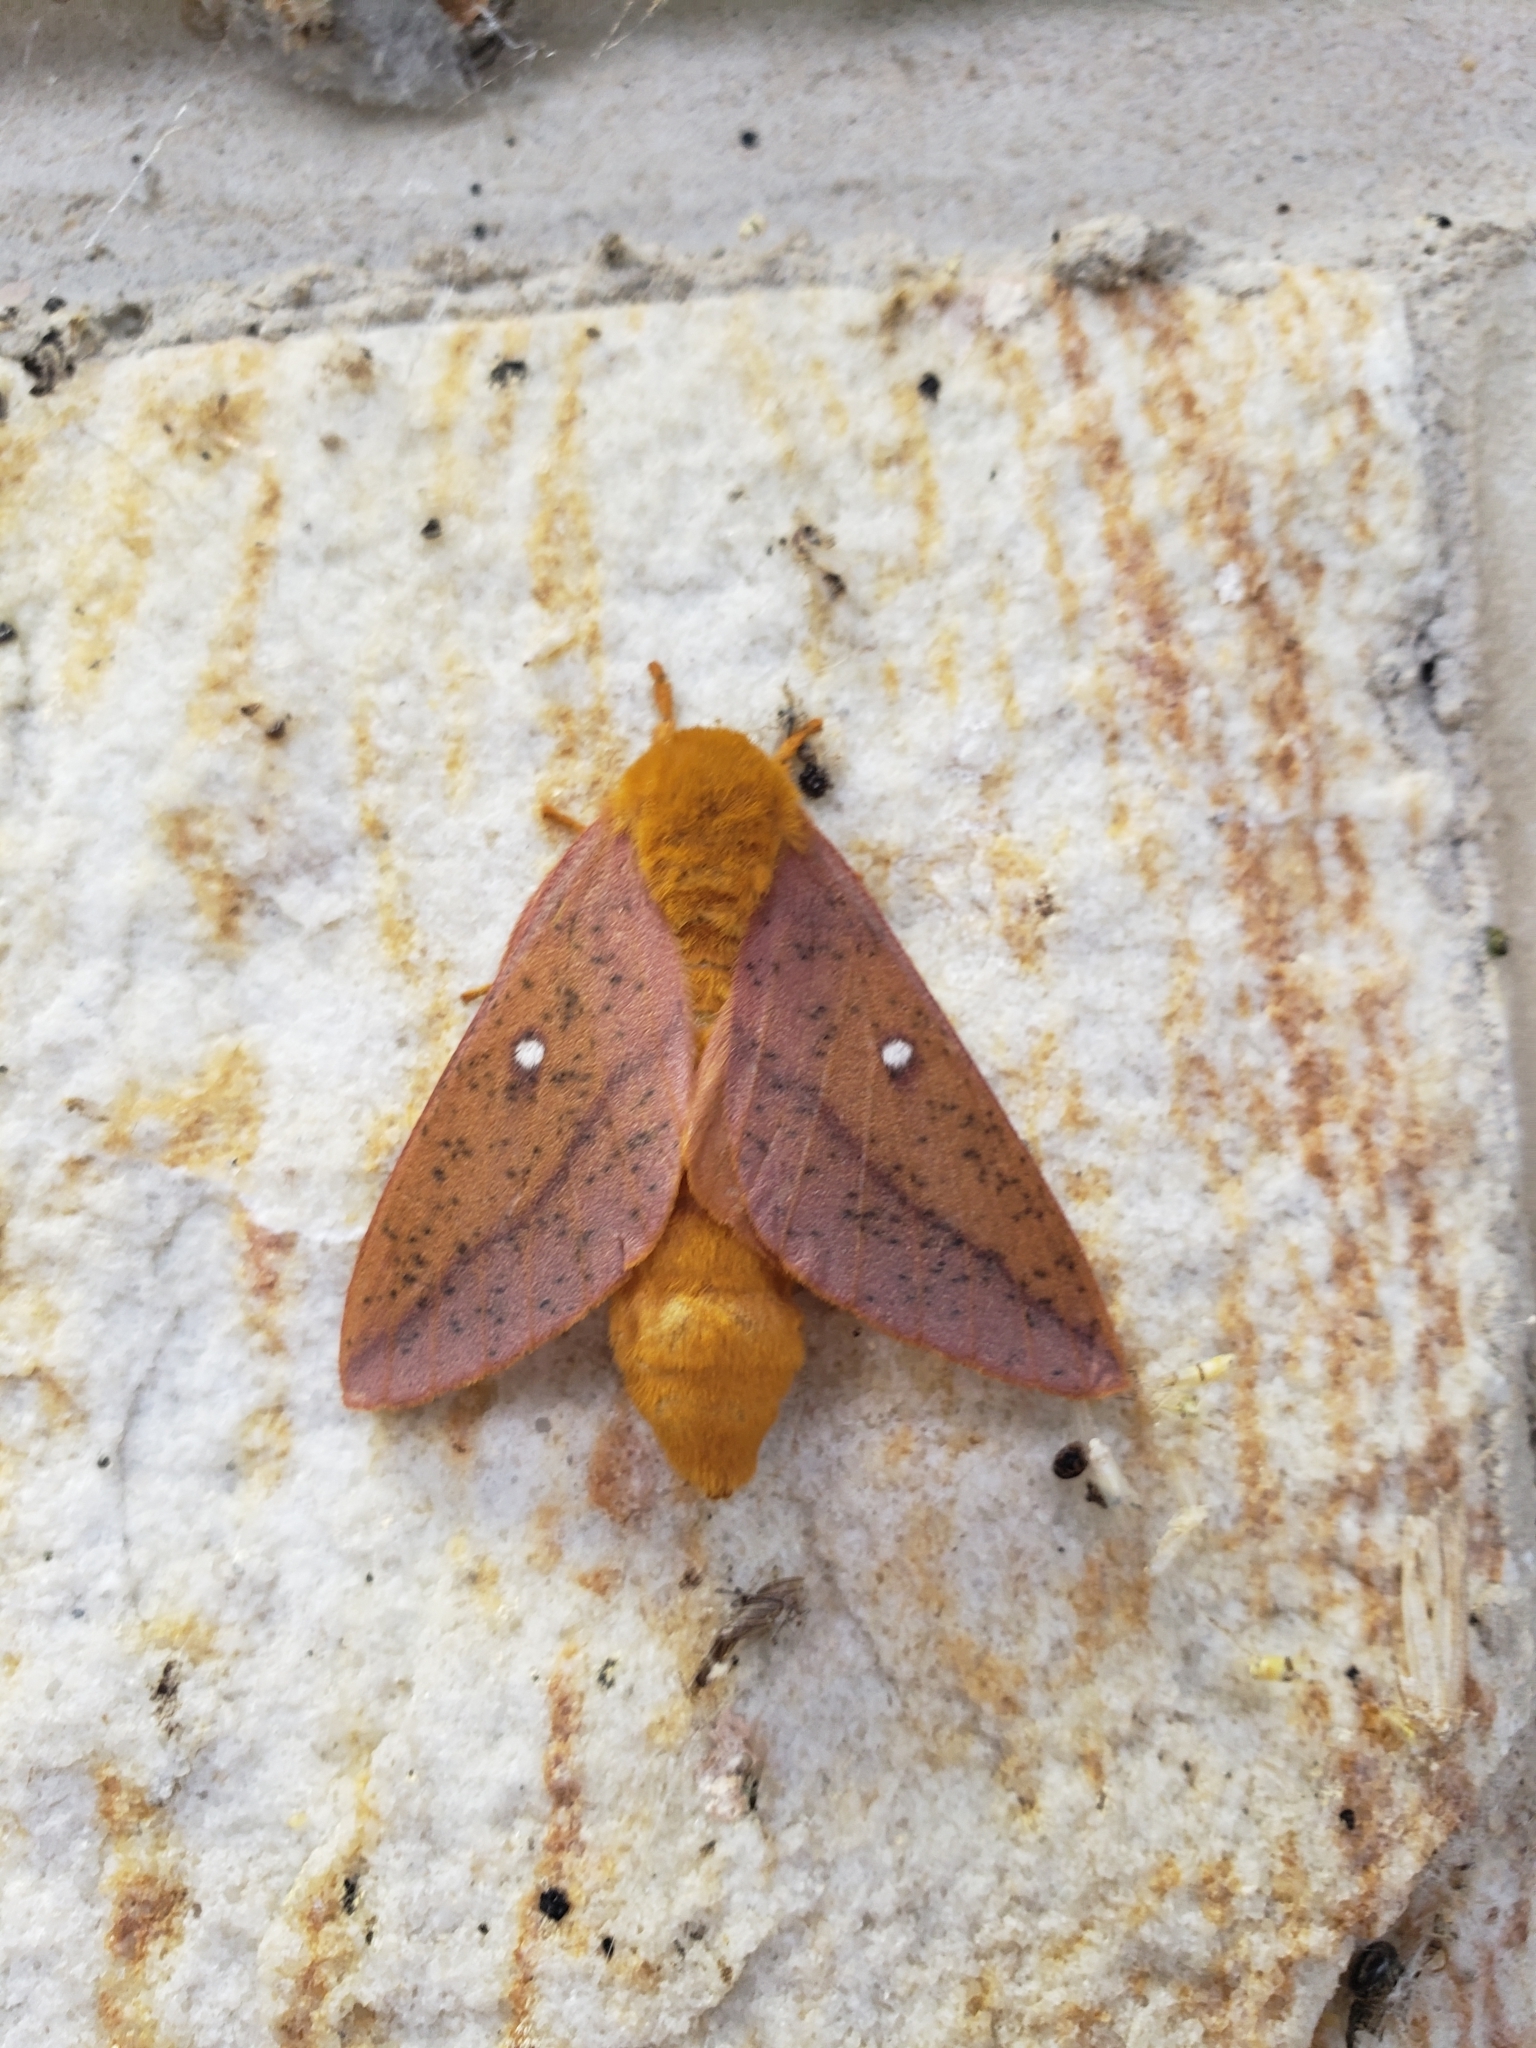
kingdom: Animalia
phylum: Arthropoda
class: Insecta
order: Lepidoptera
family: Saturniidae
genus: Anisota
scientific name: Anisota senatoria
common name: Orange-striped oakworm moth
